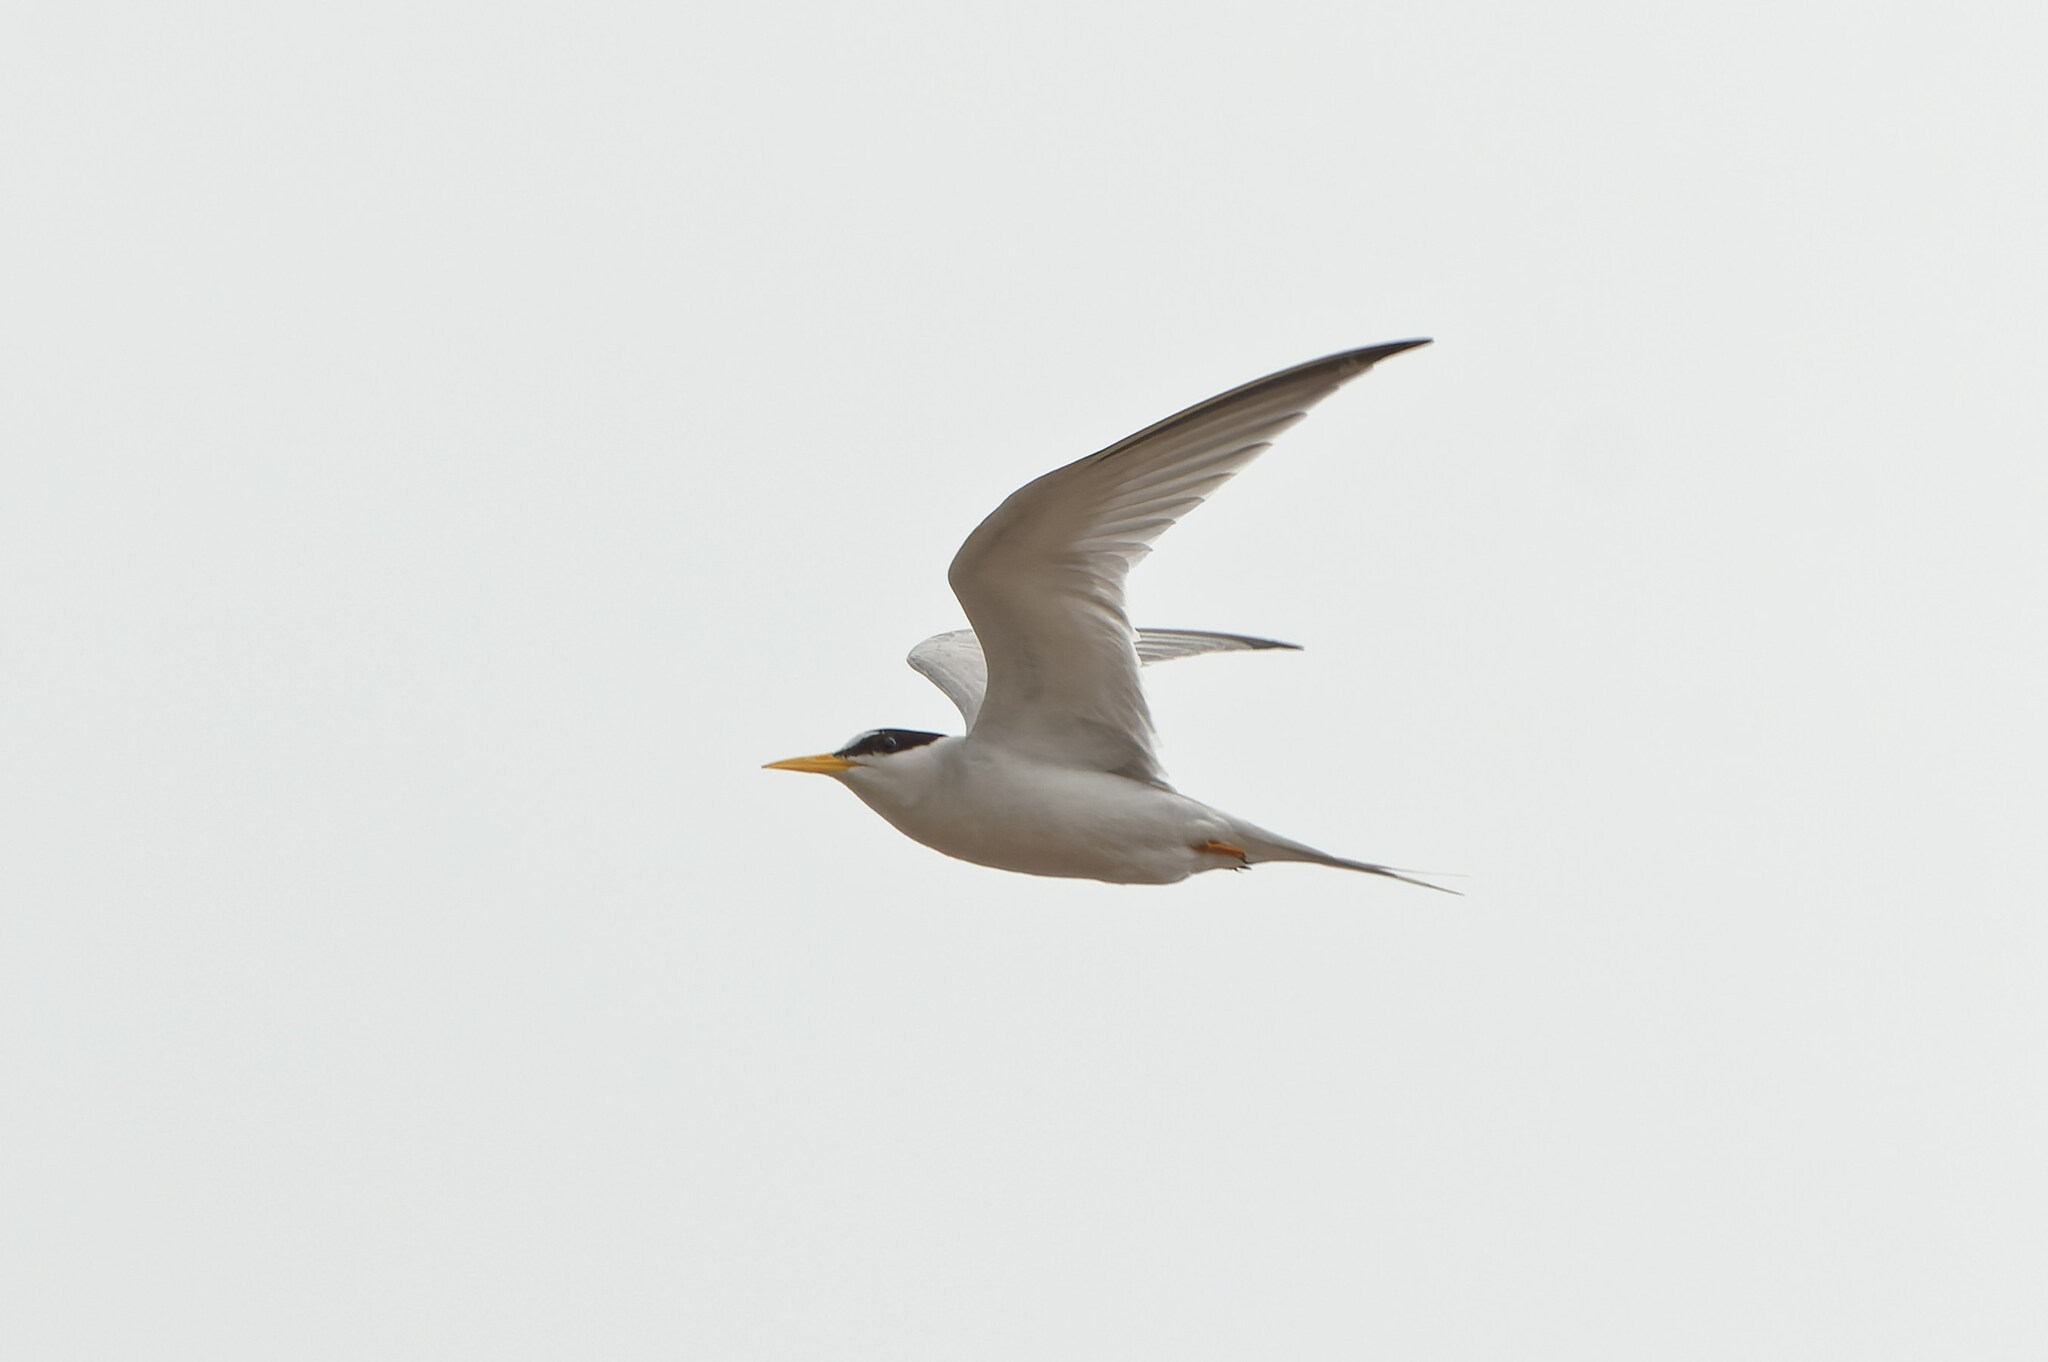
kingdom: Animalia
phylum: Chordata
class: Aves
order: Charadriiformes
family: Laridae
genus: Sternula
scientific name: Sternula antillarum
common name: Least tern
